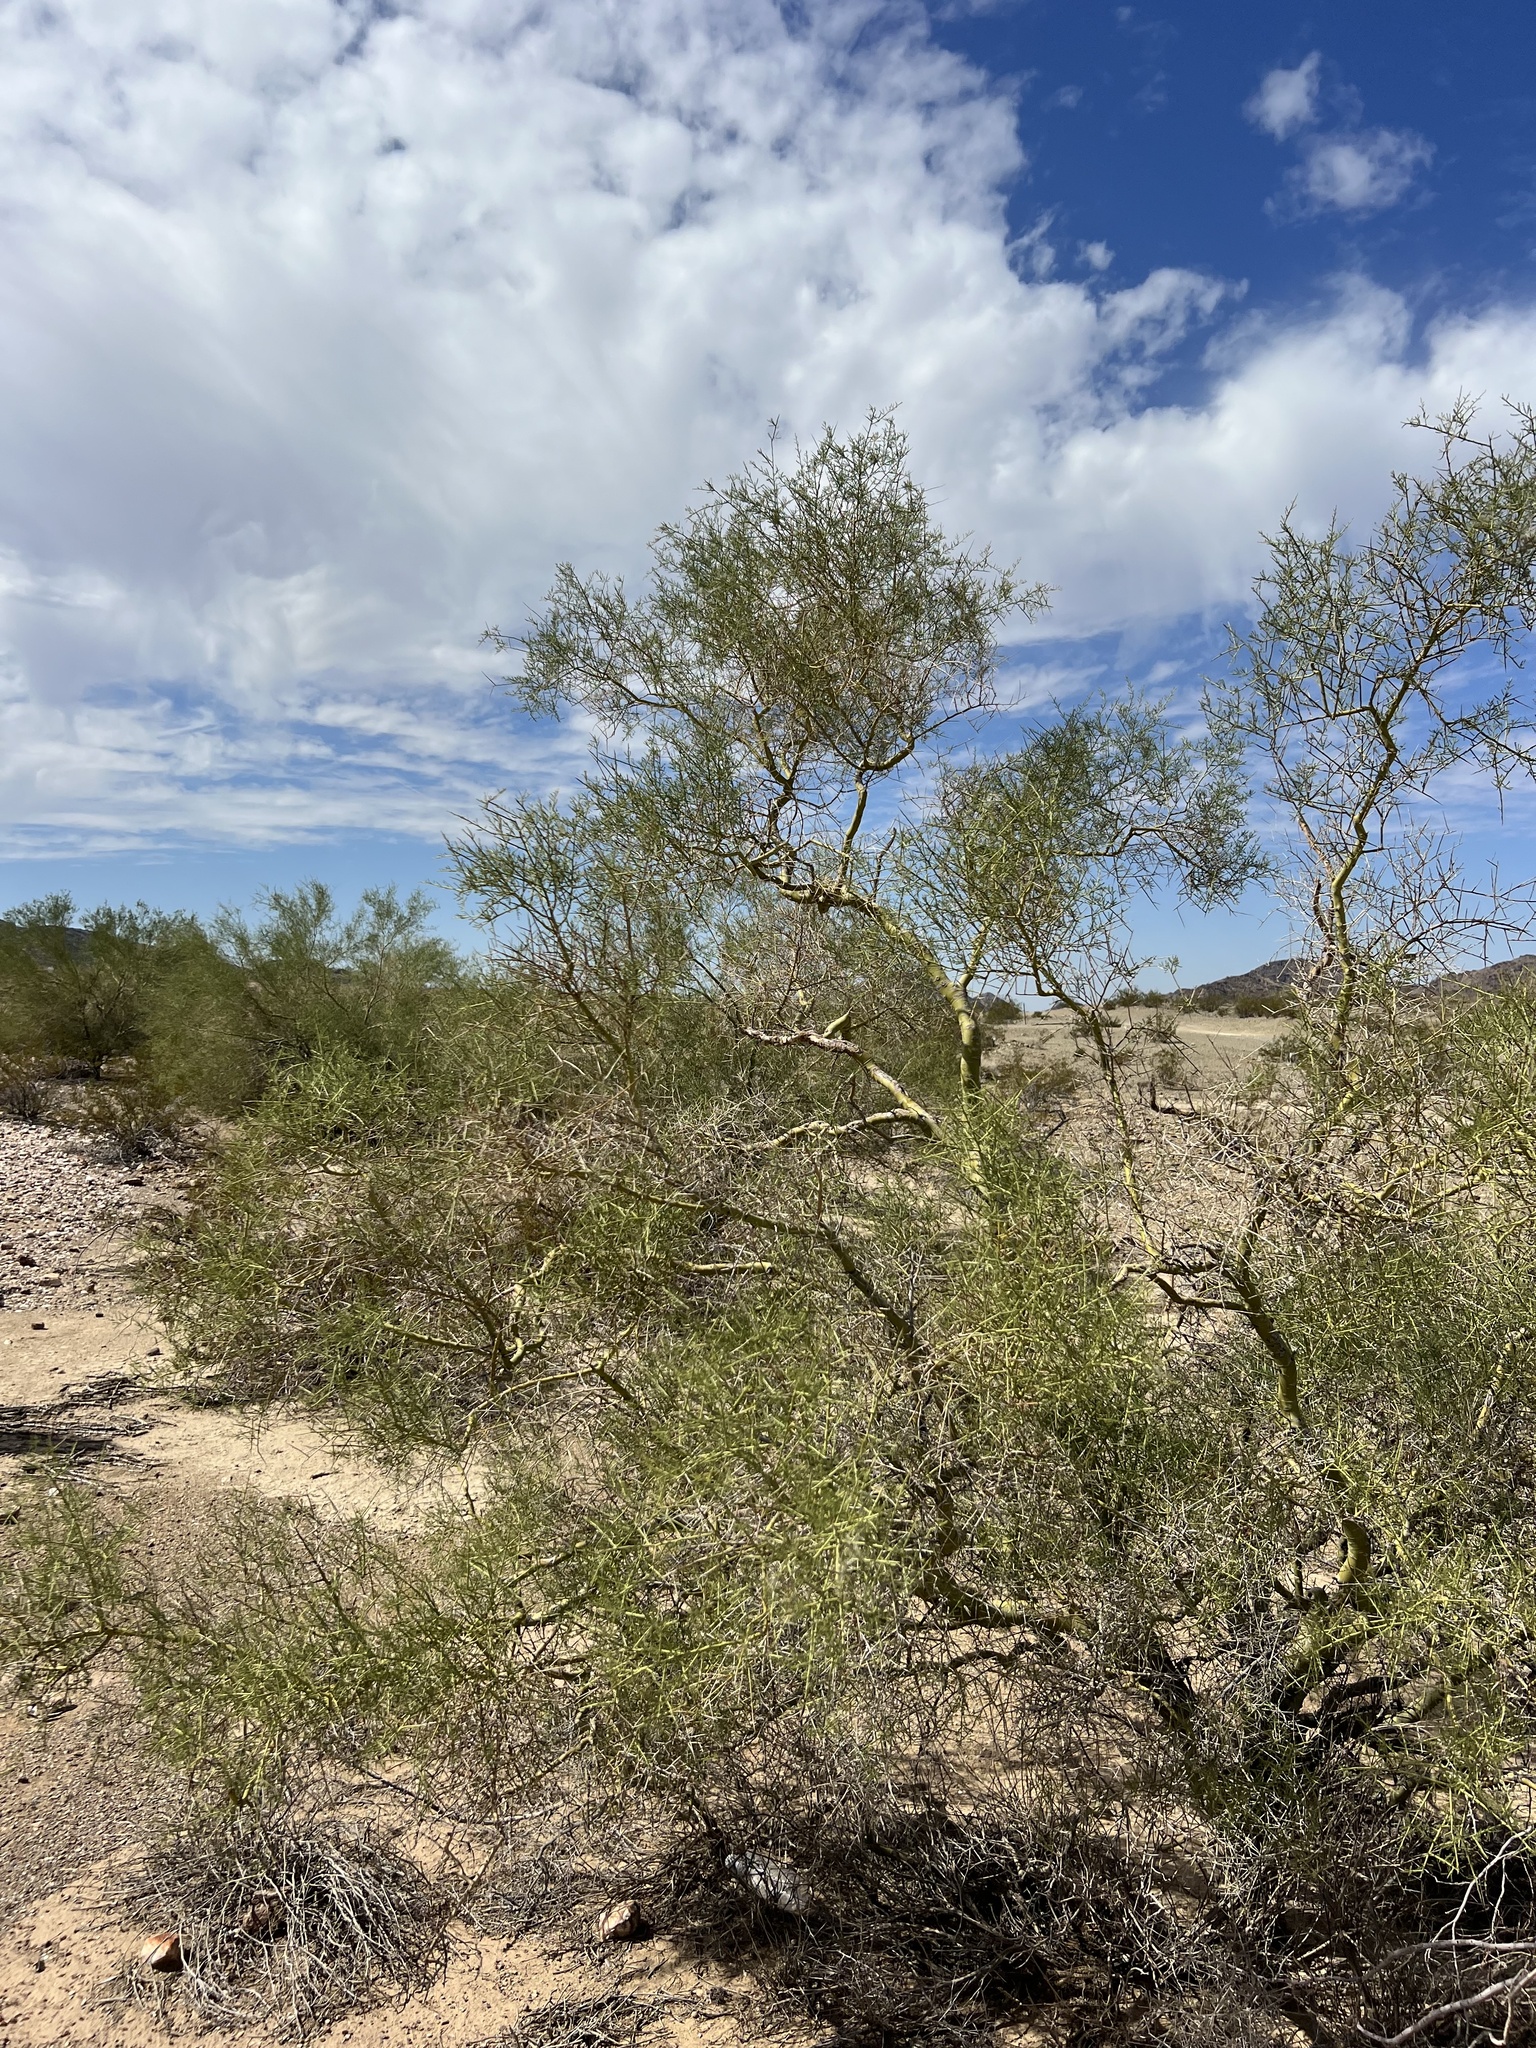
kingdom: Plantae
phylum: Tracheophyta
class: Magnoliopsida
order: Fabales
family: Fabaceae
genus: Parkinsonia
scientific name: Parkinsonia microphylla
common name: Yellow paloverde
